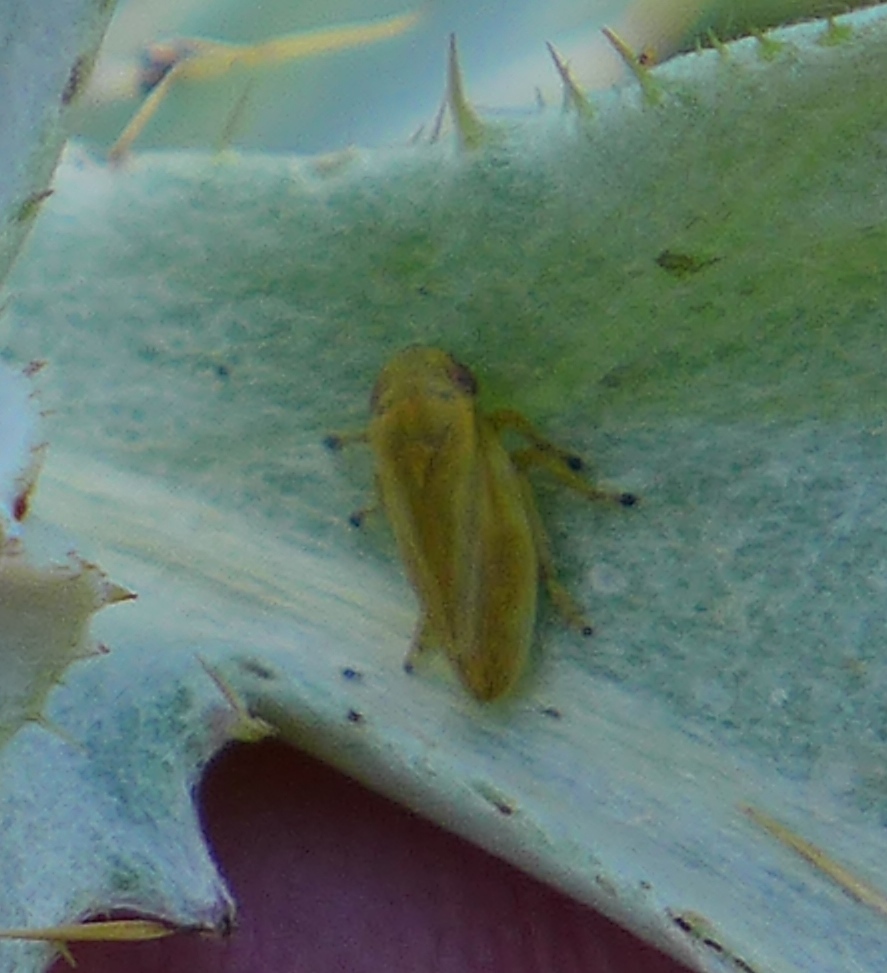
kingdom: Animalia
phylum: Arthropoda
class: Insecta
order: Hemiptera
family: Aphrophoridae
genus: Philaenus
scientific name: Philaenus spumarius
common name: Meadow spittlebug
